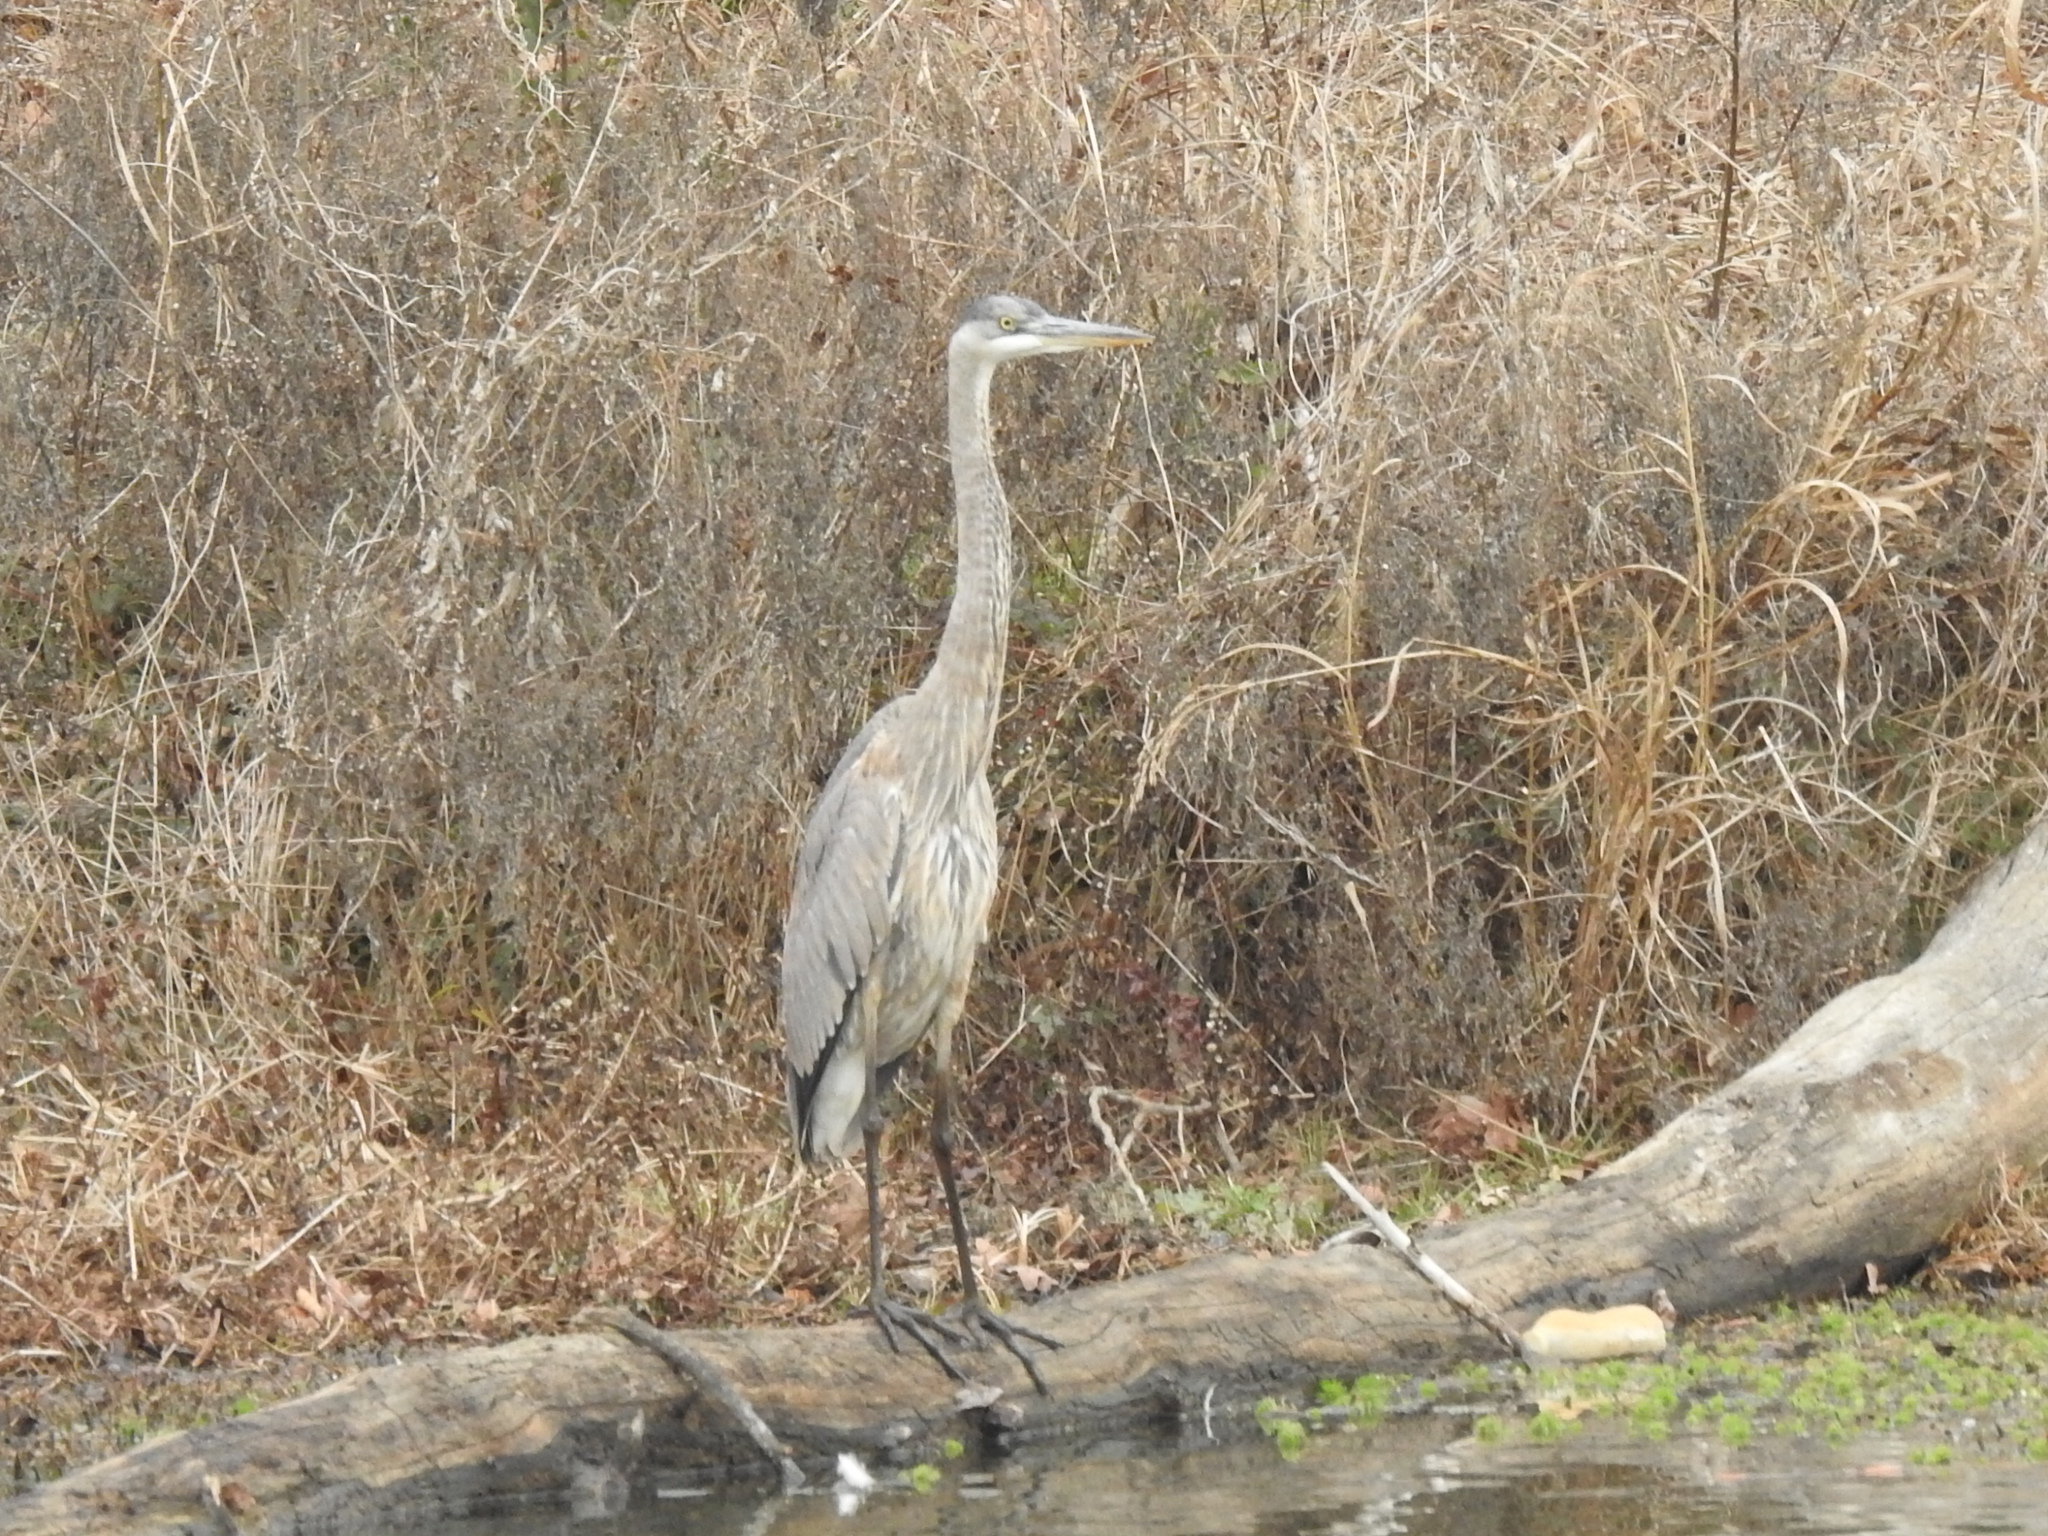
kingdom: Animalia
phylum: Chordata
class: Aves
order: Pelecaniformes
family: Ardeidae
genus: Ardea
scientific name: Ardea herodias
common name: Great blue heron
